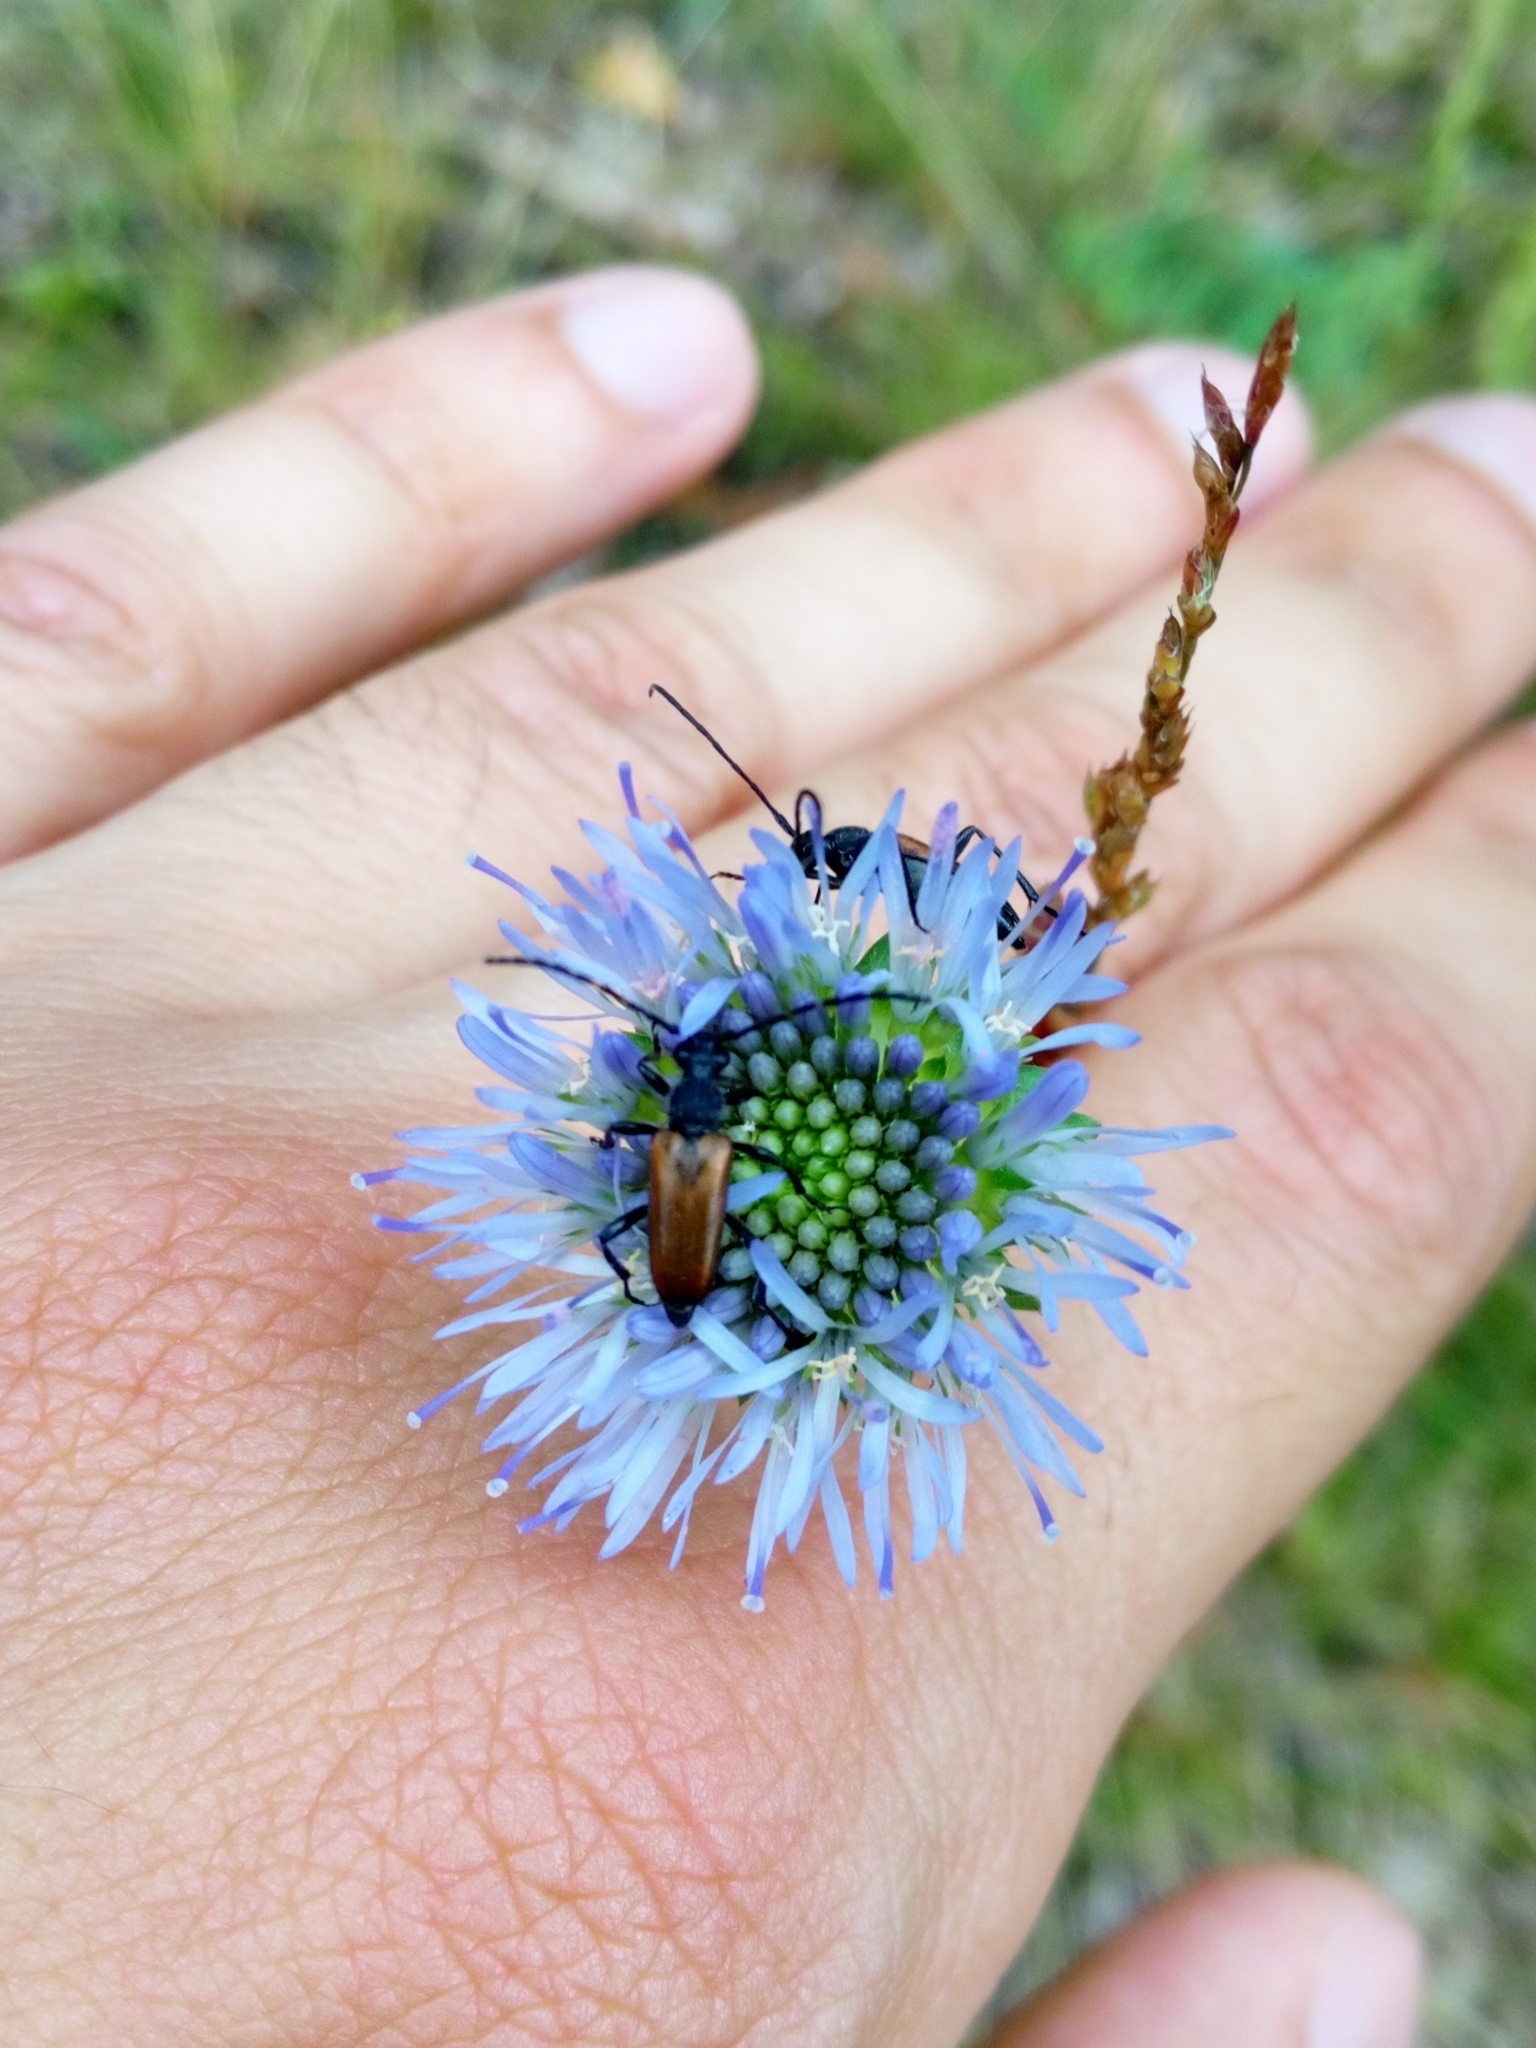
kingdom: Animalia
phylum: Arthropoda
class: Insecta
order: Coleoptera
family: Cerambycidae
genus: Paracorymbia
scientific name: Paracorymbia maculicornis
